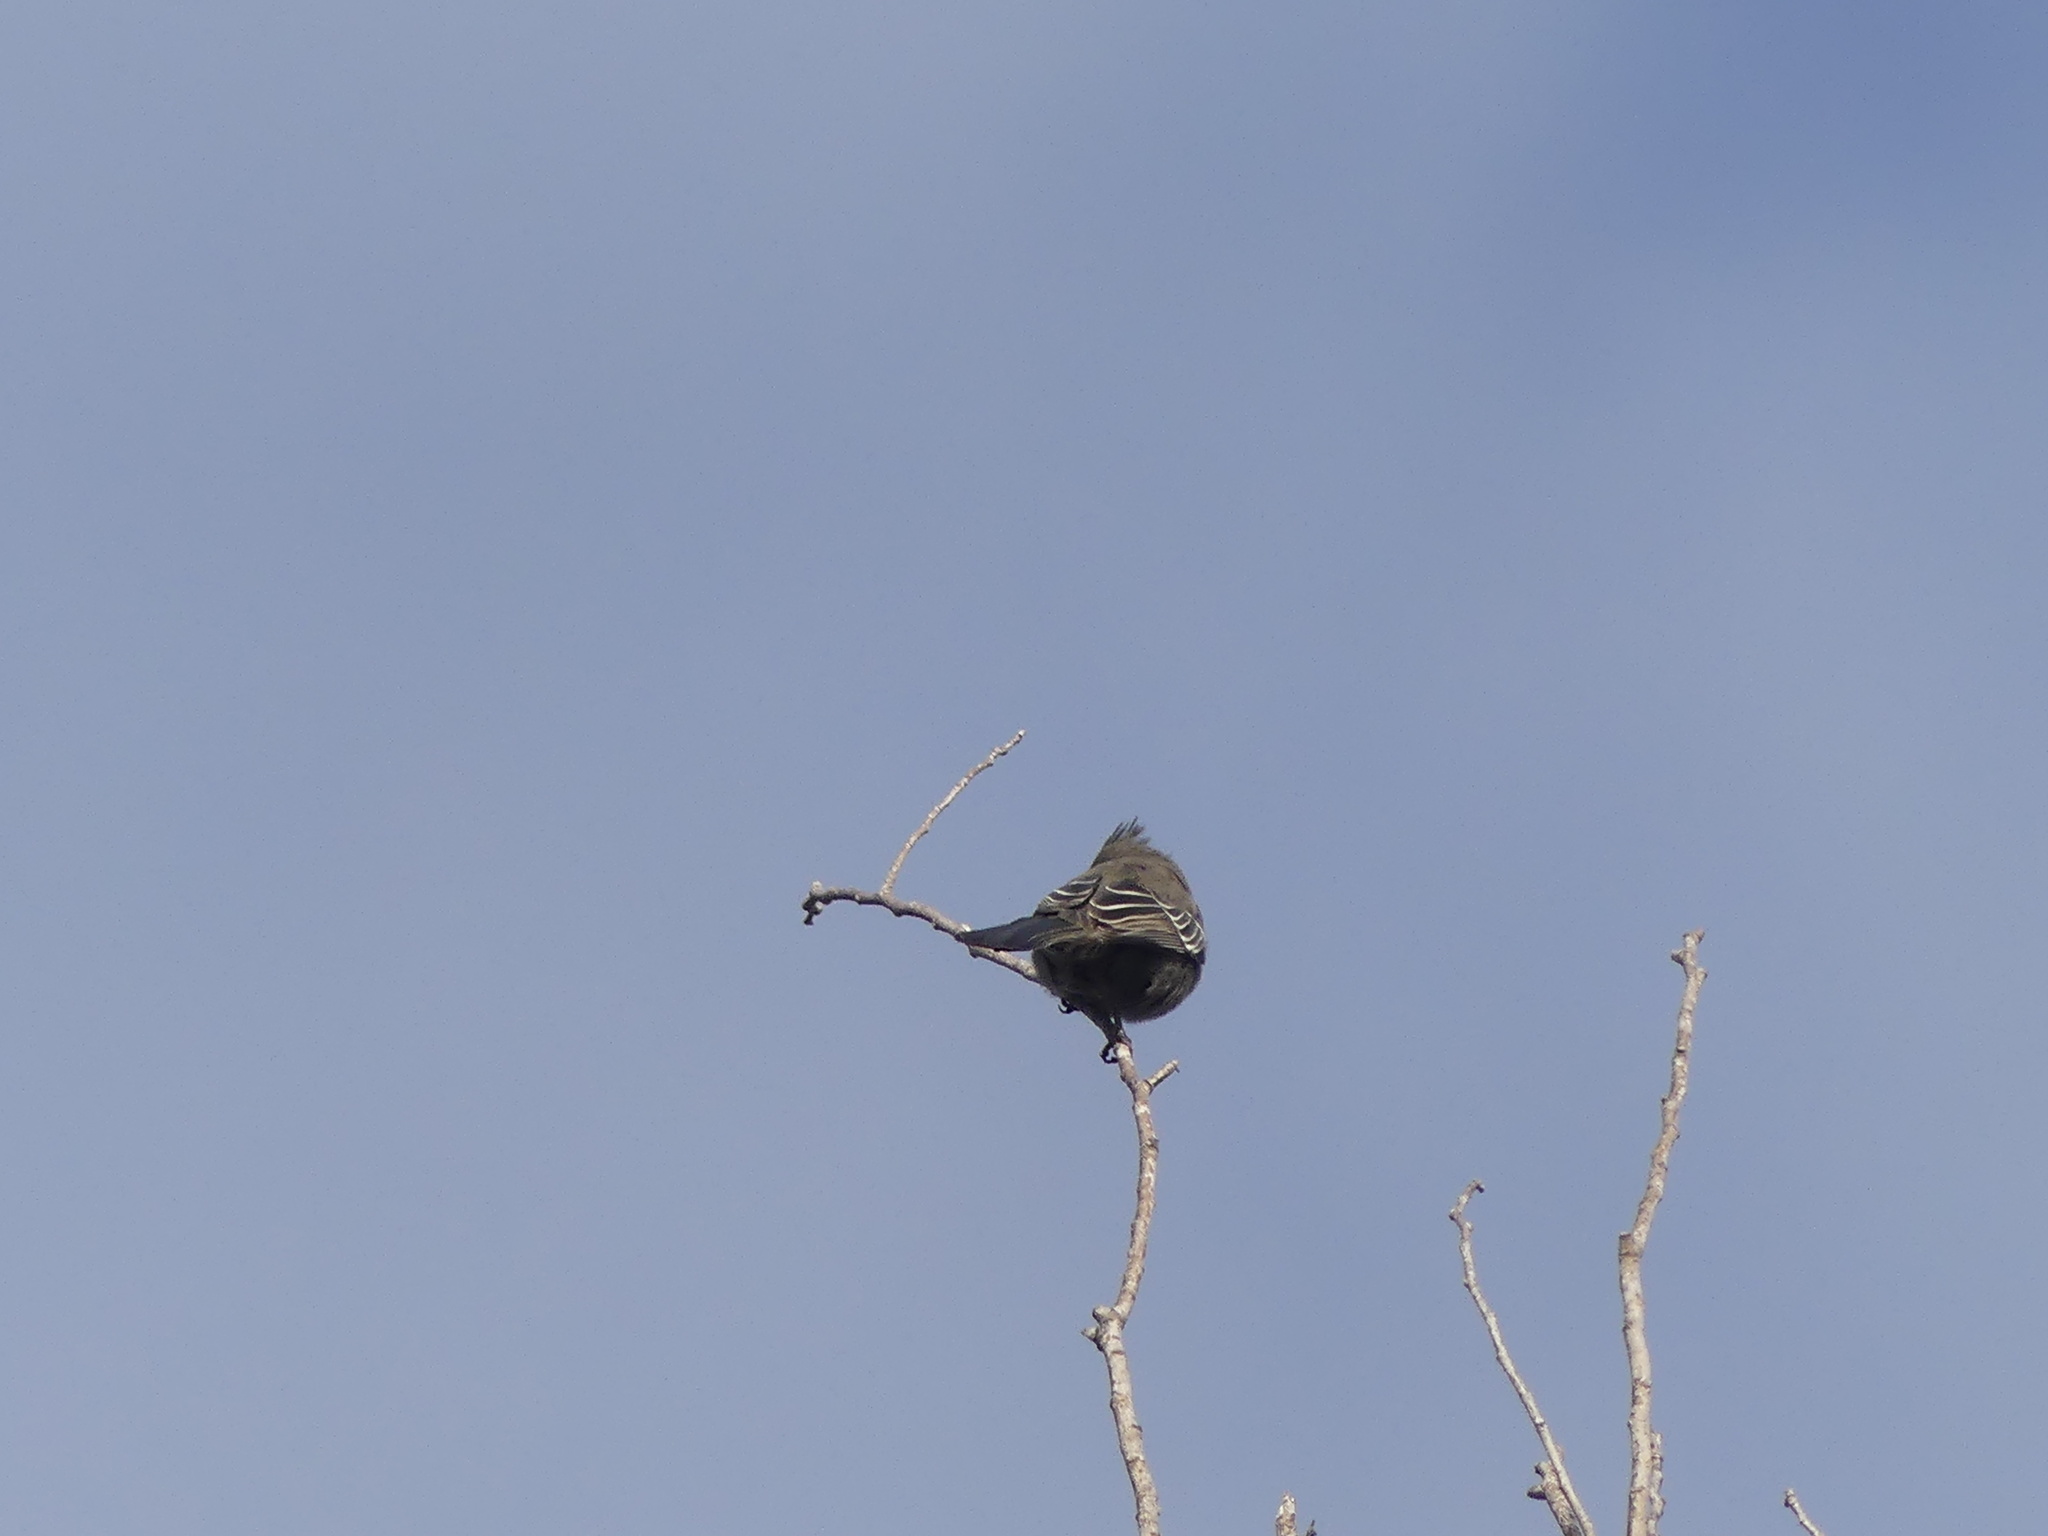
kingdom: Animalia
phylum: Chordata
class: Aves
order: Passeriformes
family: Ptilogonatidae
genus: Phainopepla
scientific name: Phainopepla nitens
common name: Phainopepla
